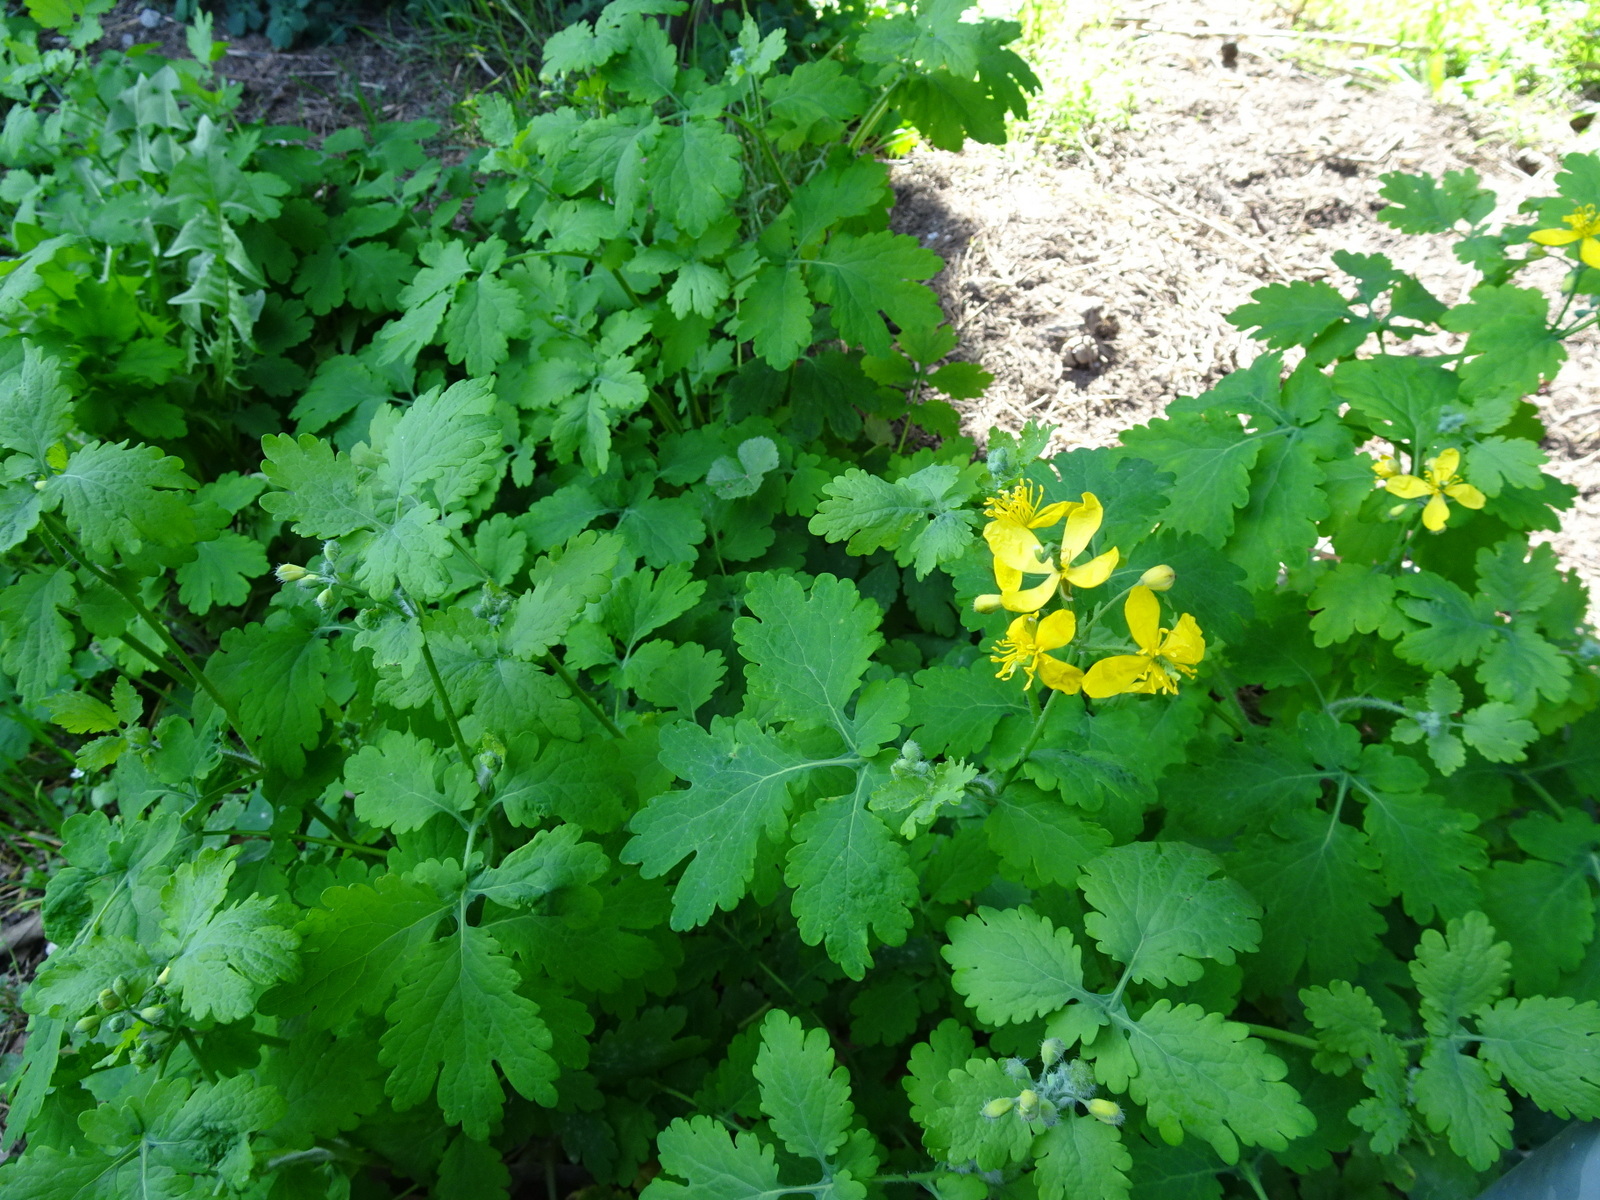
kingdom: Plantae
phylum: Tracheophyta
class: Magnoliopsida
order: Ranunculales
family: Papaveraceae
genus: Chelidonium
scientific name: Chelidonium majus
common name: Greater celandine
